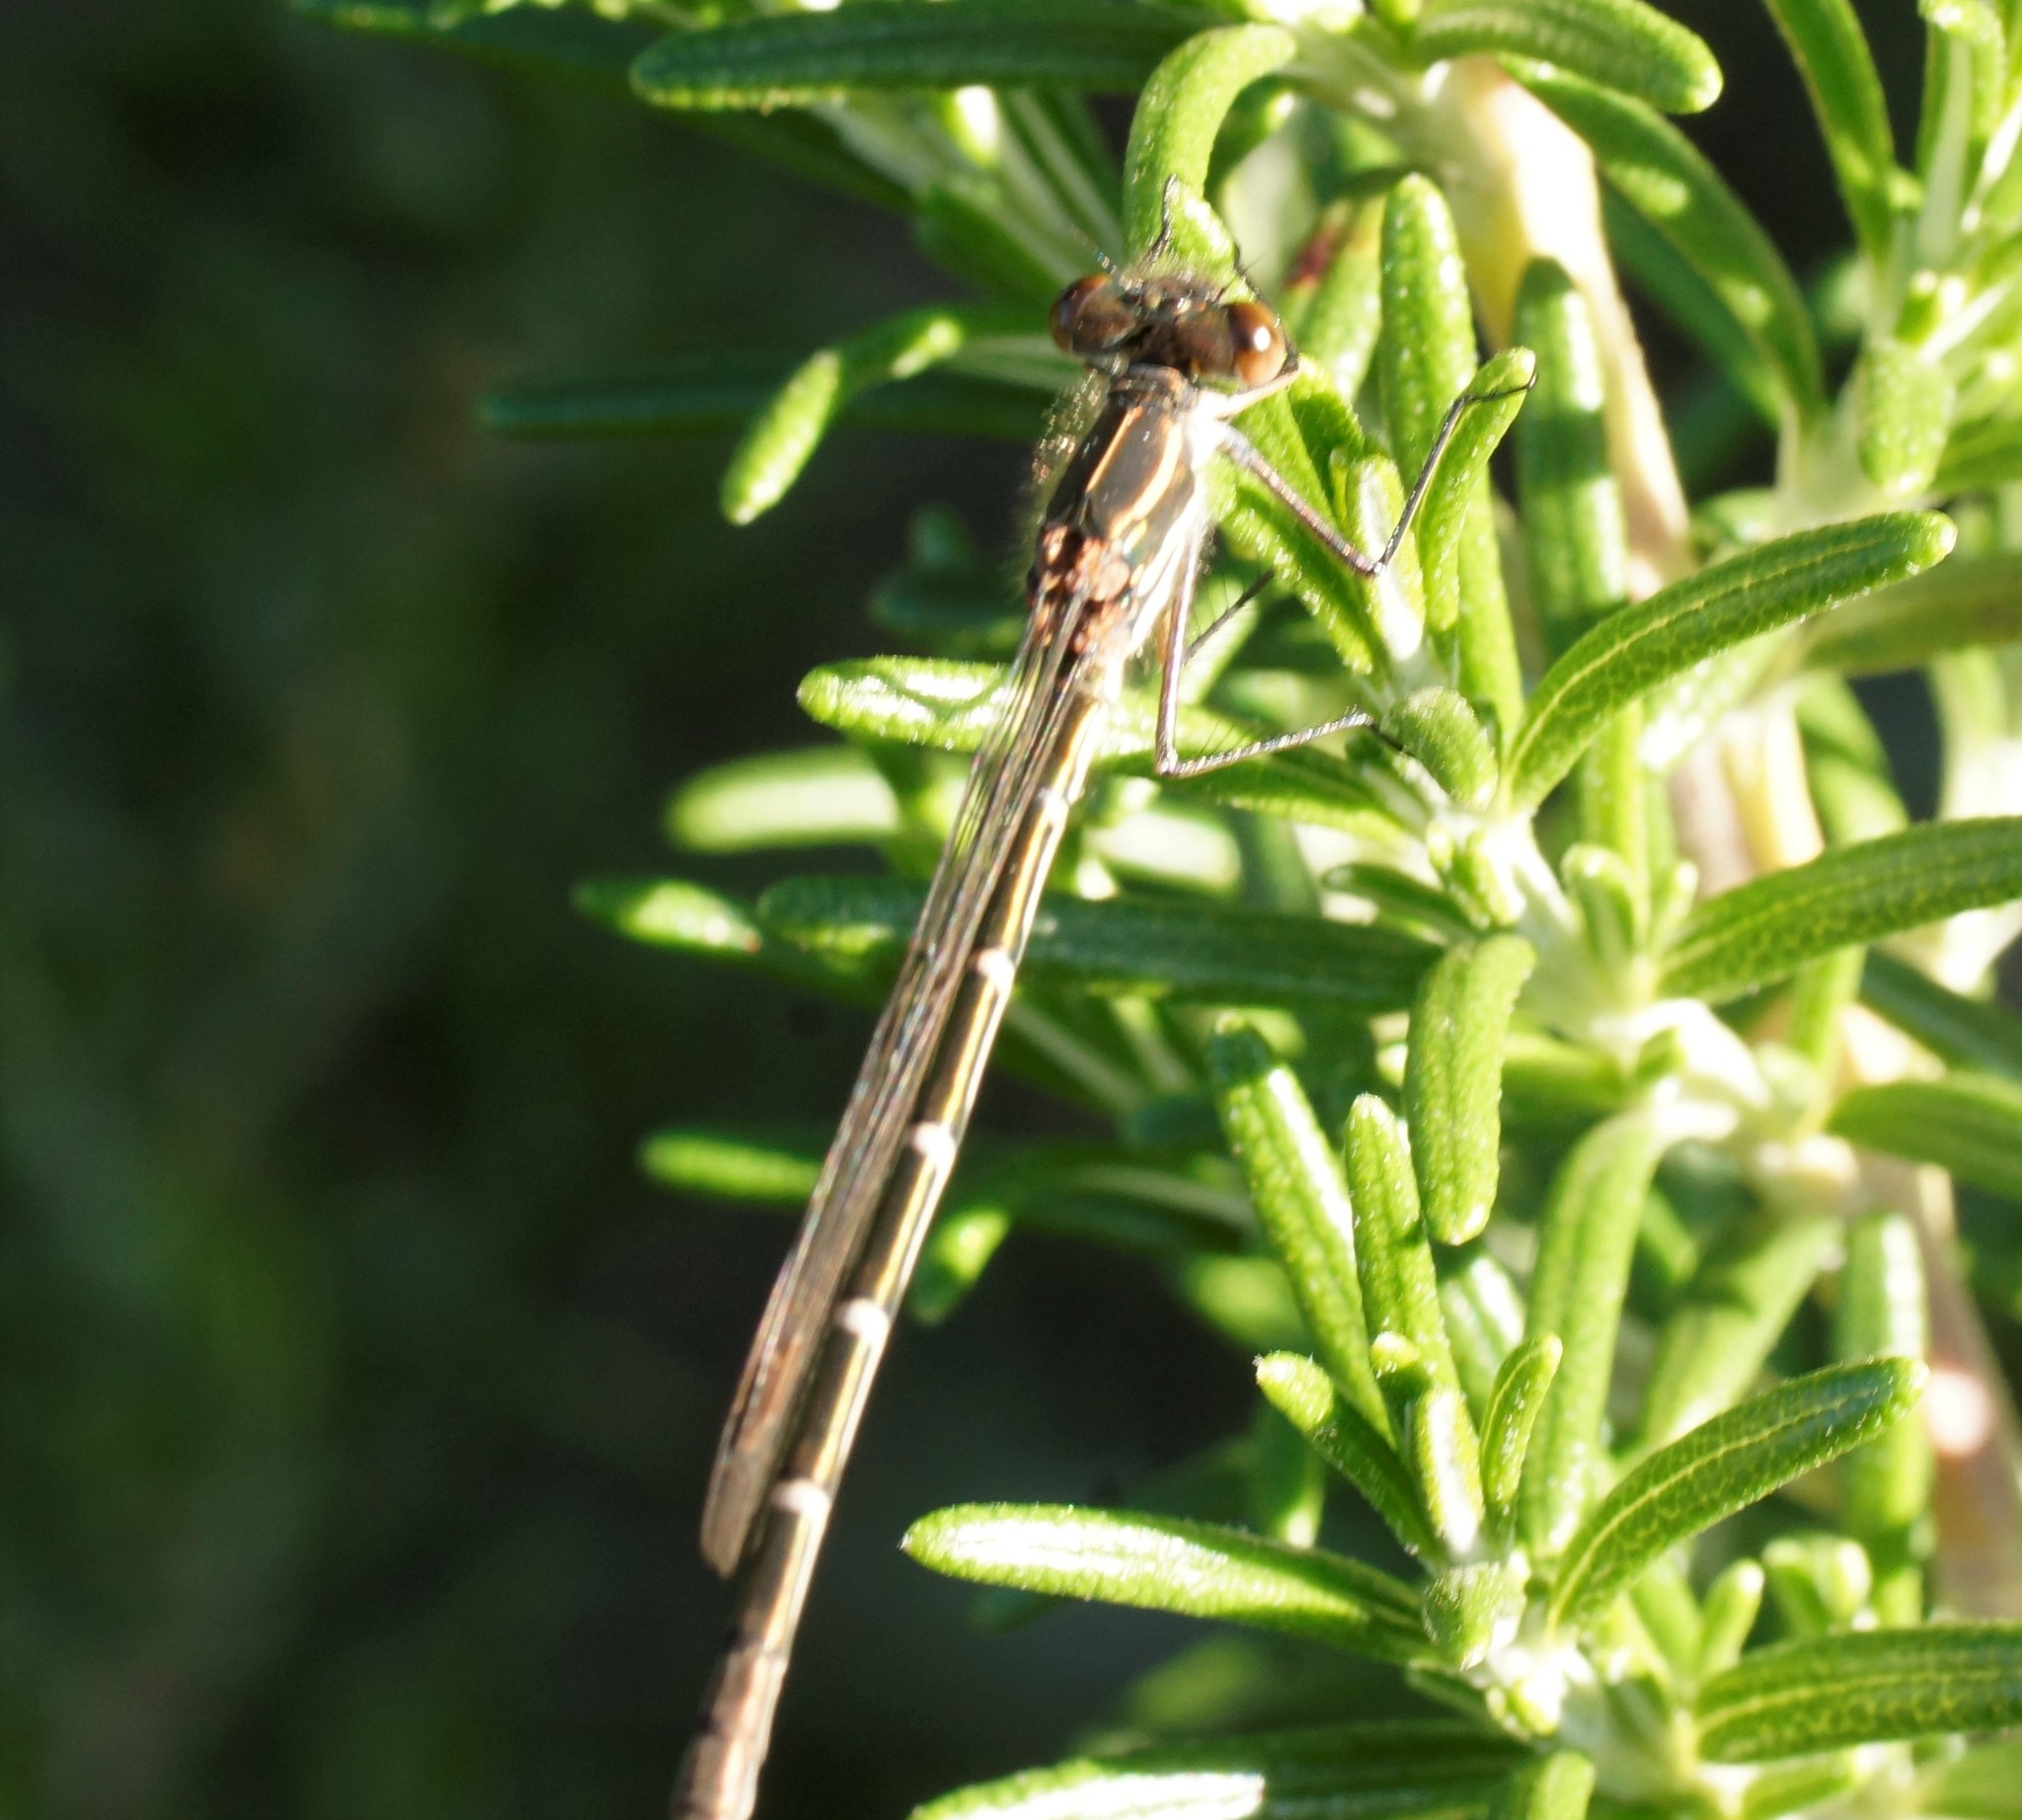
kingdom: Animalia
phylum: Arthropoda
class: Insecta
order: Odonata
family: Lestidae
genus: Austrolestes
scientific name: Austrolestes annulosus
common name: Blue ringtail
